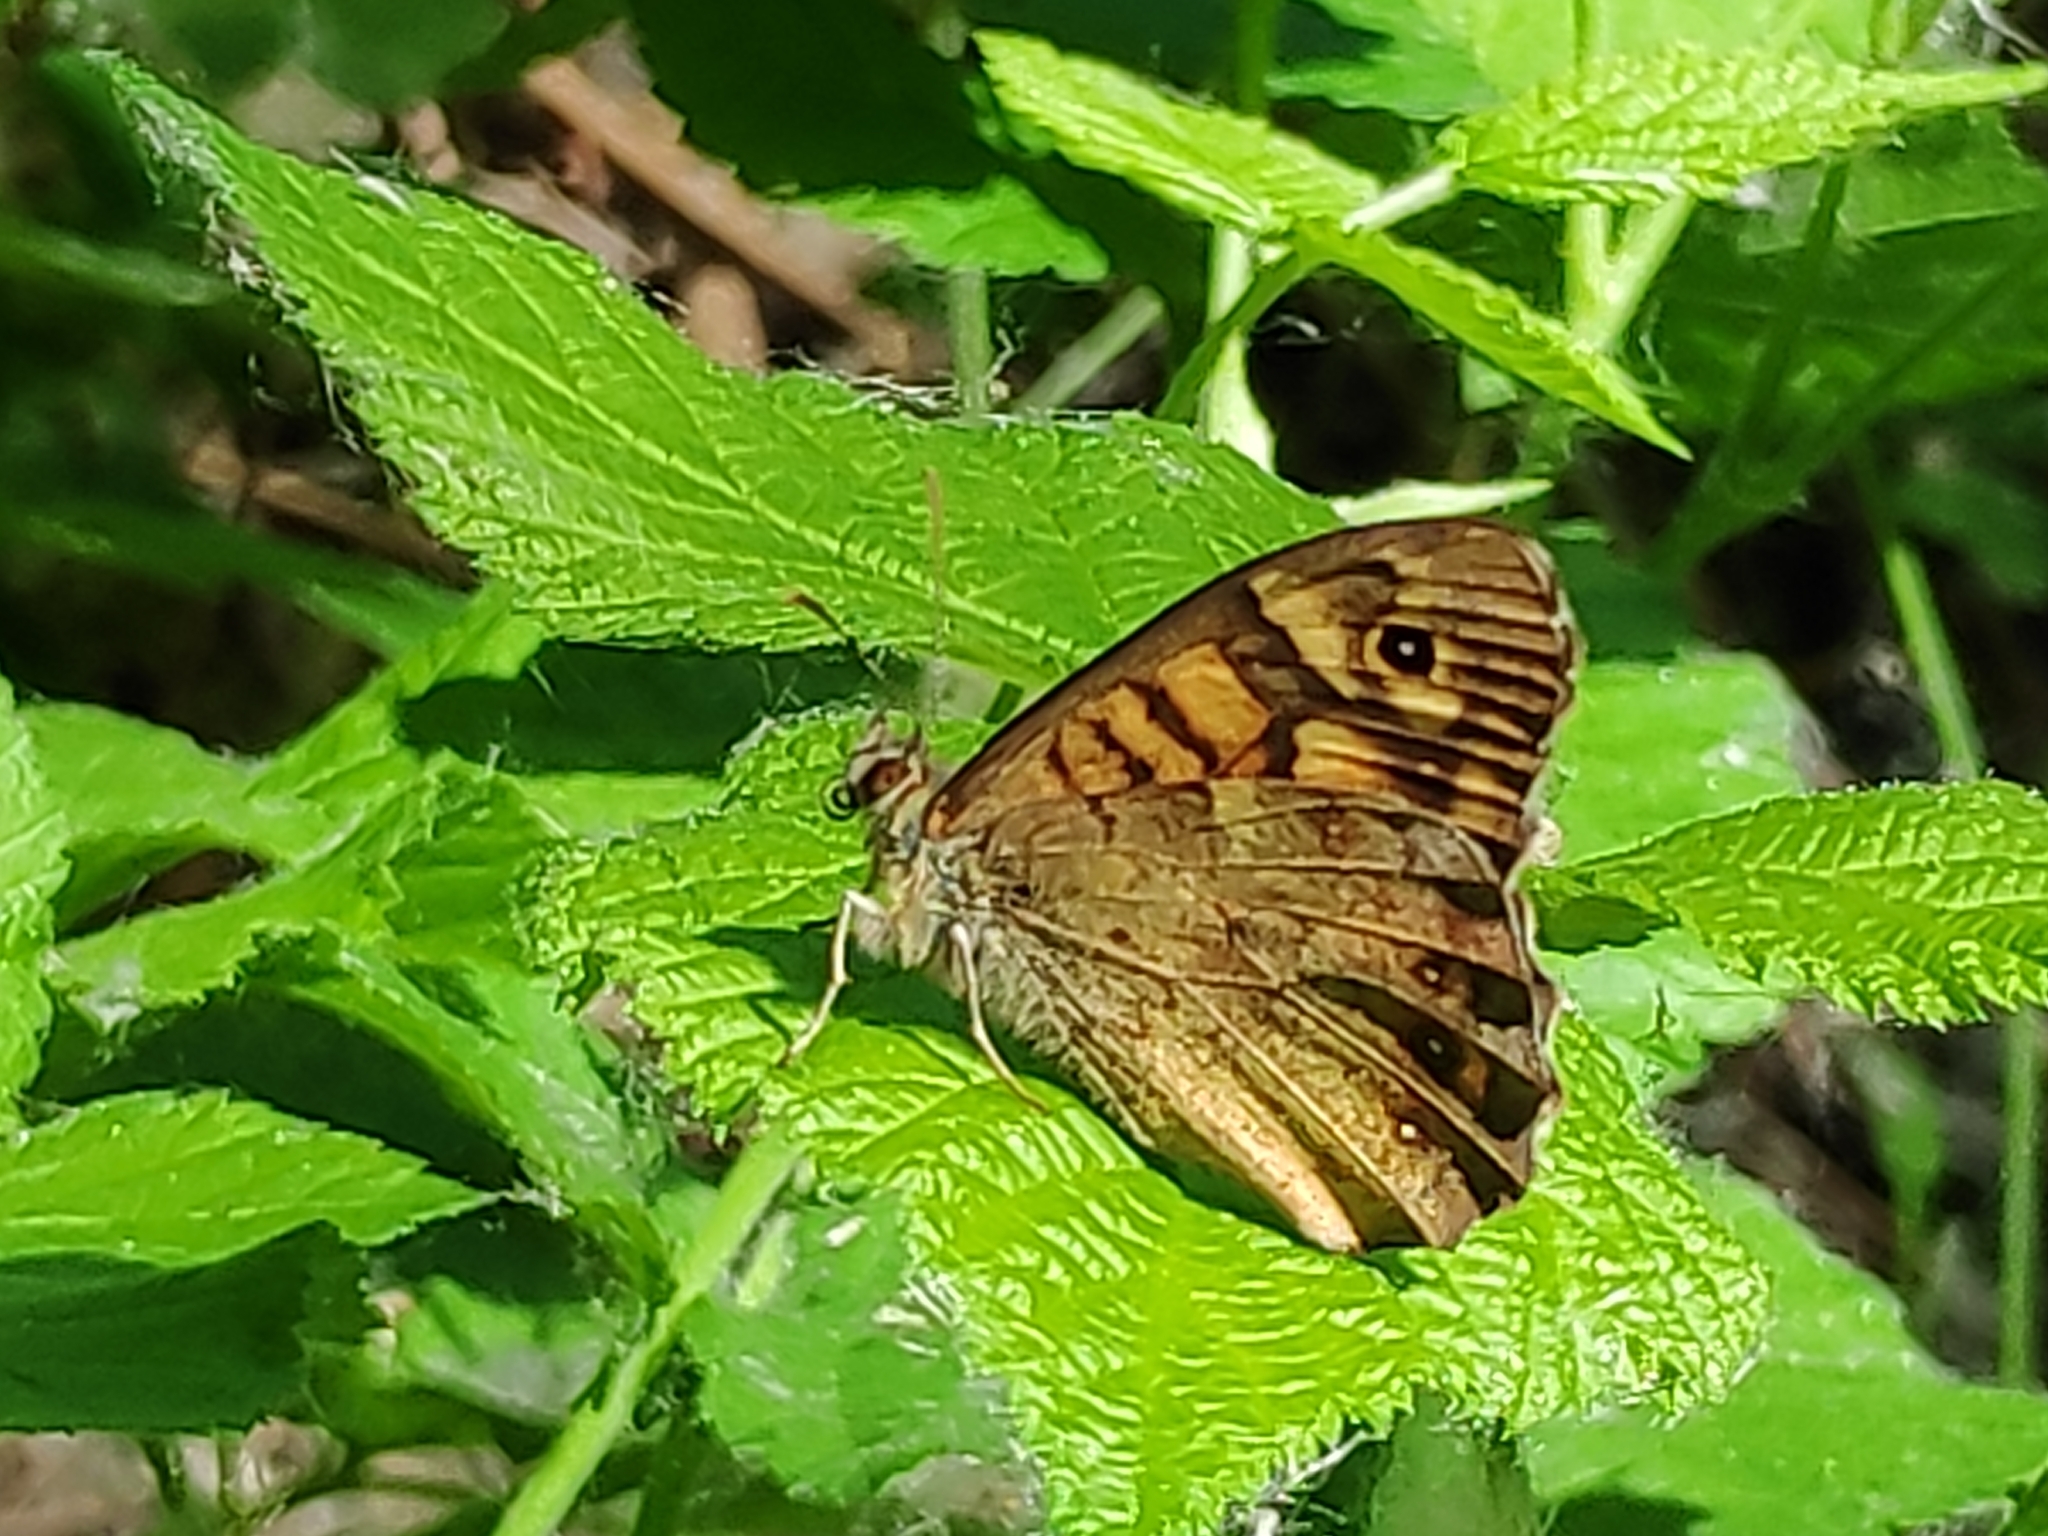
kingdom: Animalia
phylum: Arthropoda
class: Insecta
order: Lepidoptera
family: Nymphalidae
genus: Pararge
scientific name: Pararge aegeria
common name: Speckled wood
